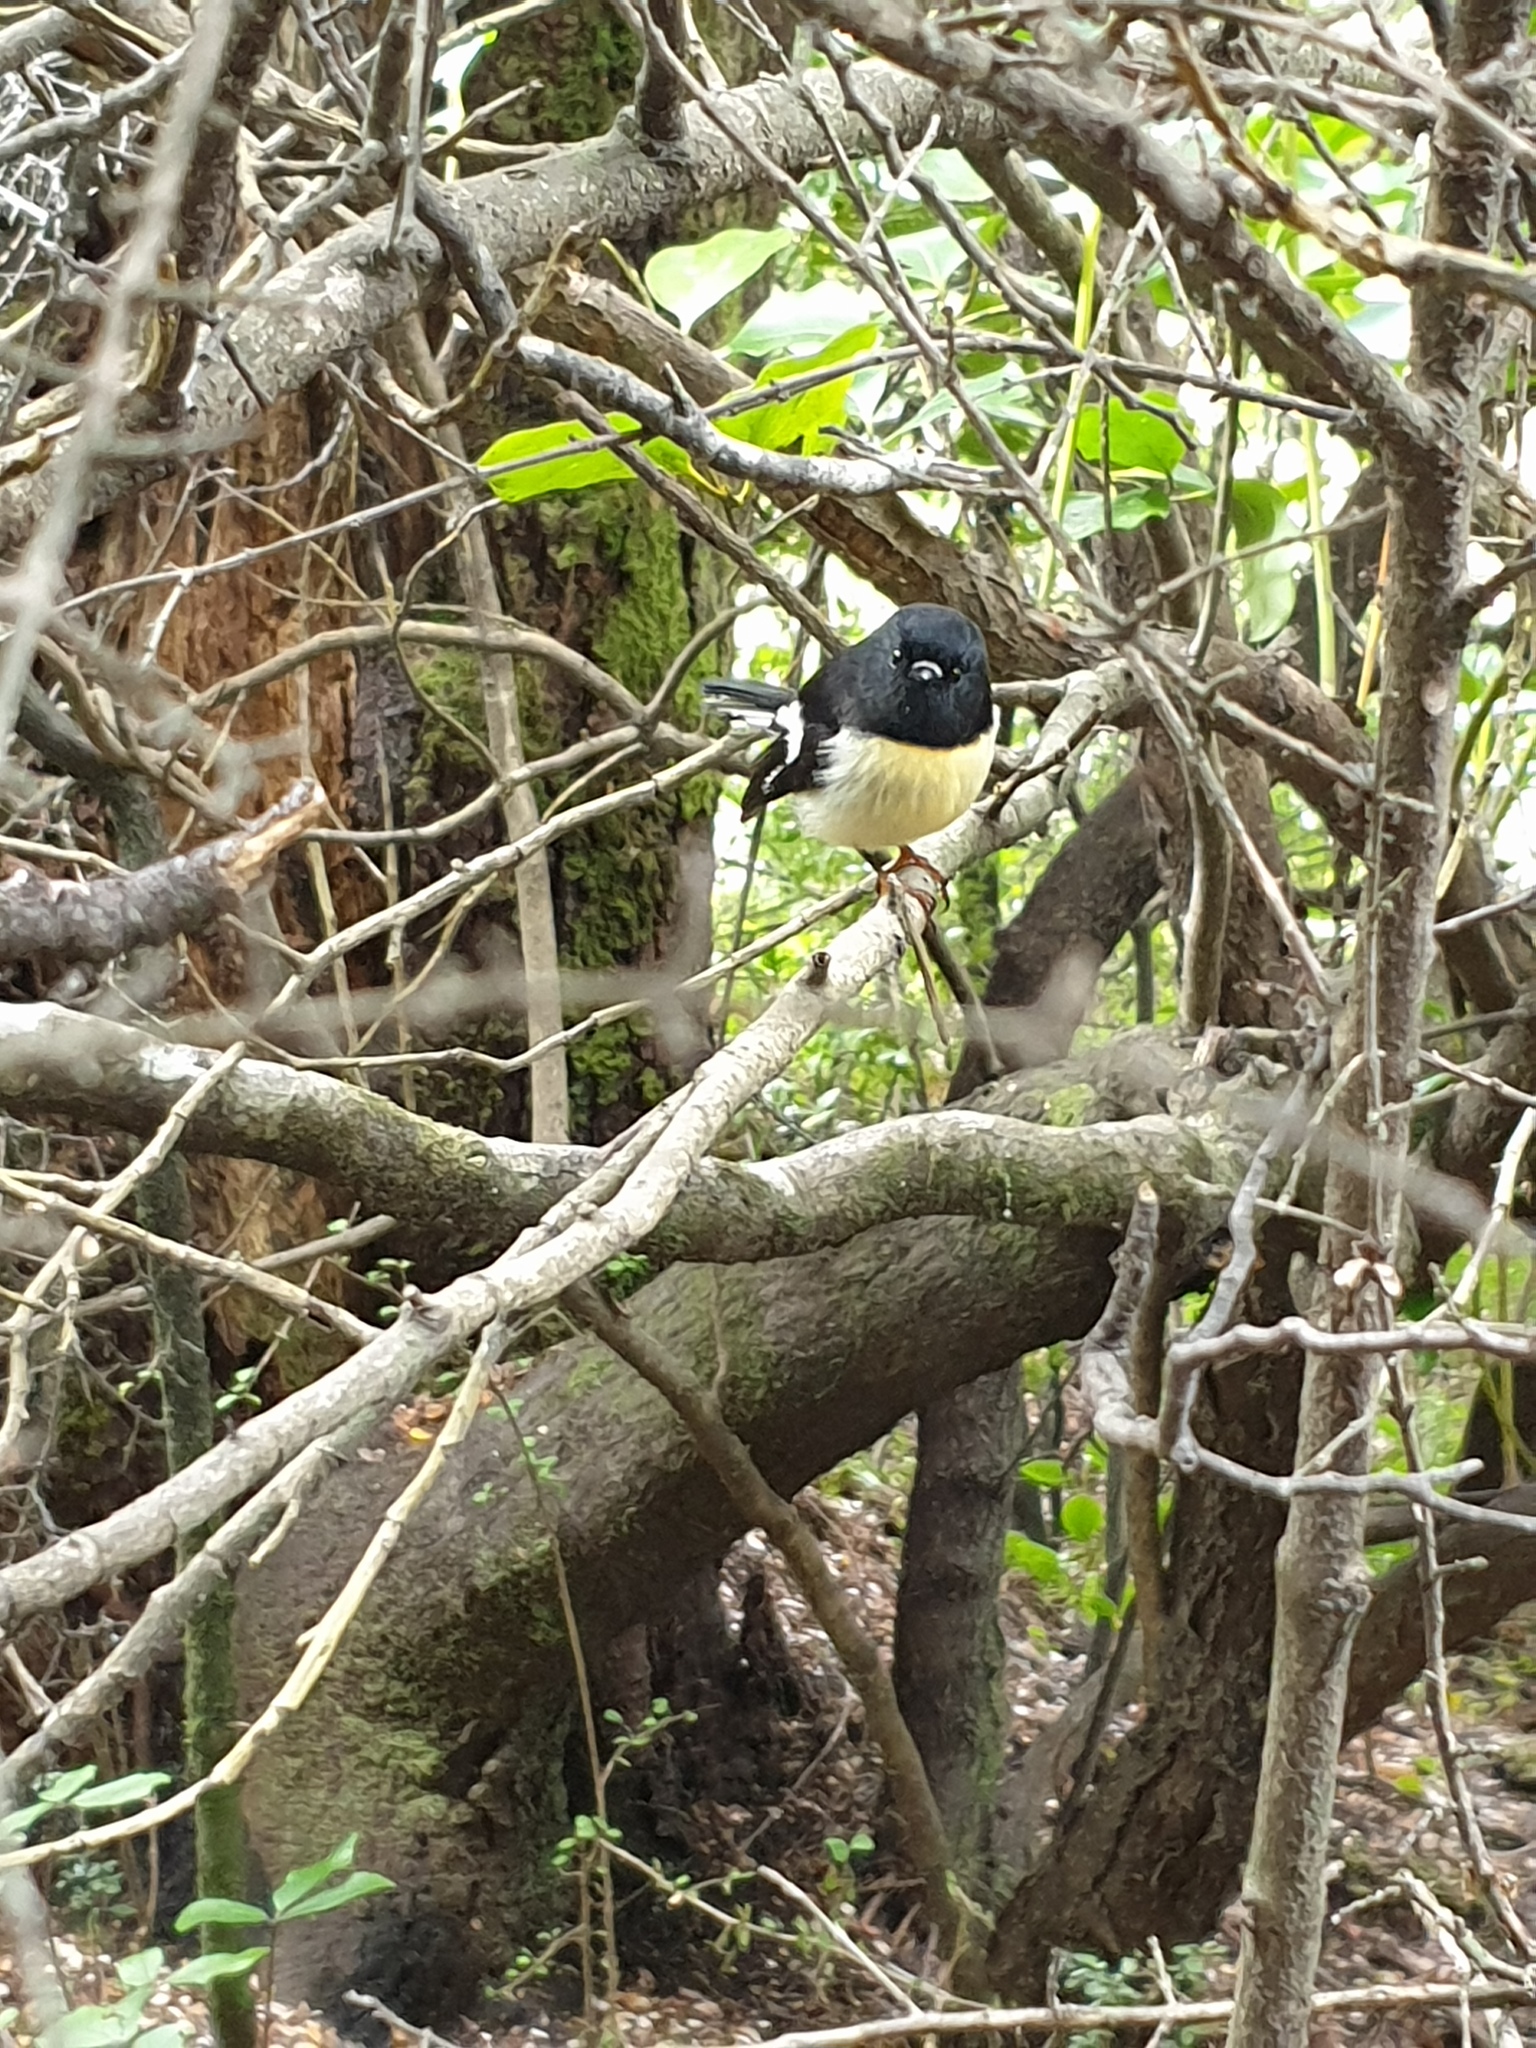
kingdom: Animalia
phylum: Chordata
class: Aves
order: Passeriformes
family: Petroicidae
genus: Petroica
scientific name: Petroica macrocephala
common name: Tomtit
